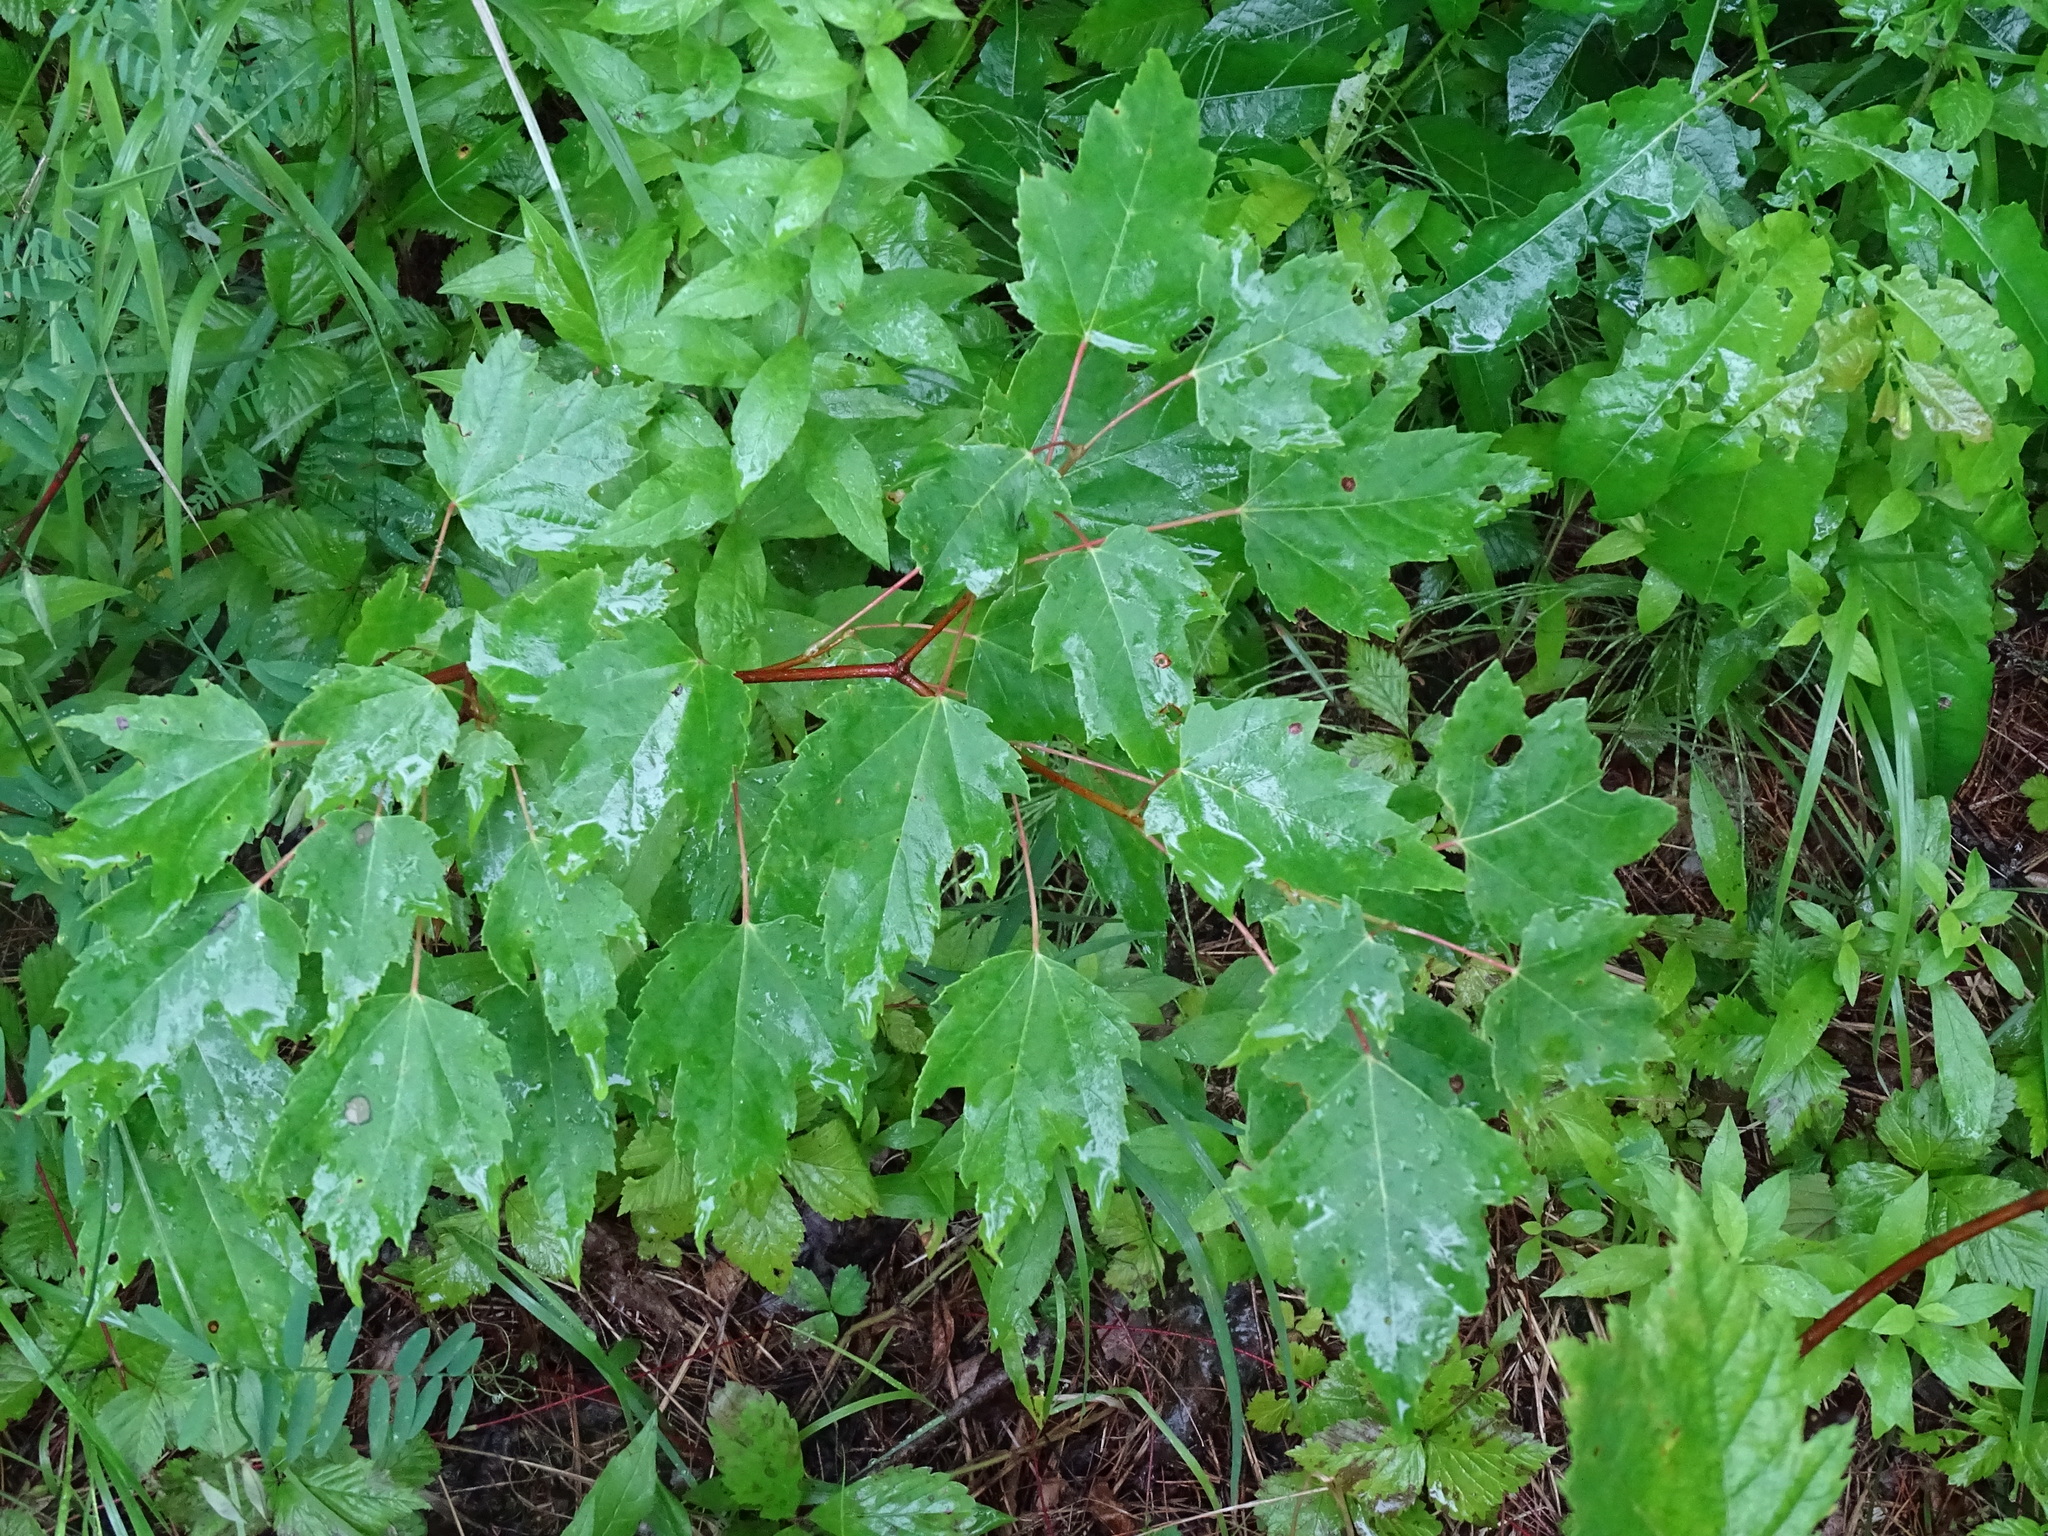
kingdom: Plantae
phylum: Tracheophyta
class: Magnoliopsida
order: Sapindales
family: Sapindaceae
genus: Acer
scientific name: Acer rubrum
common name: Red maple
